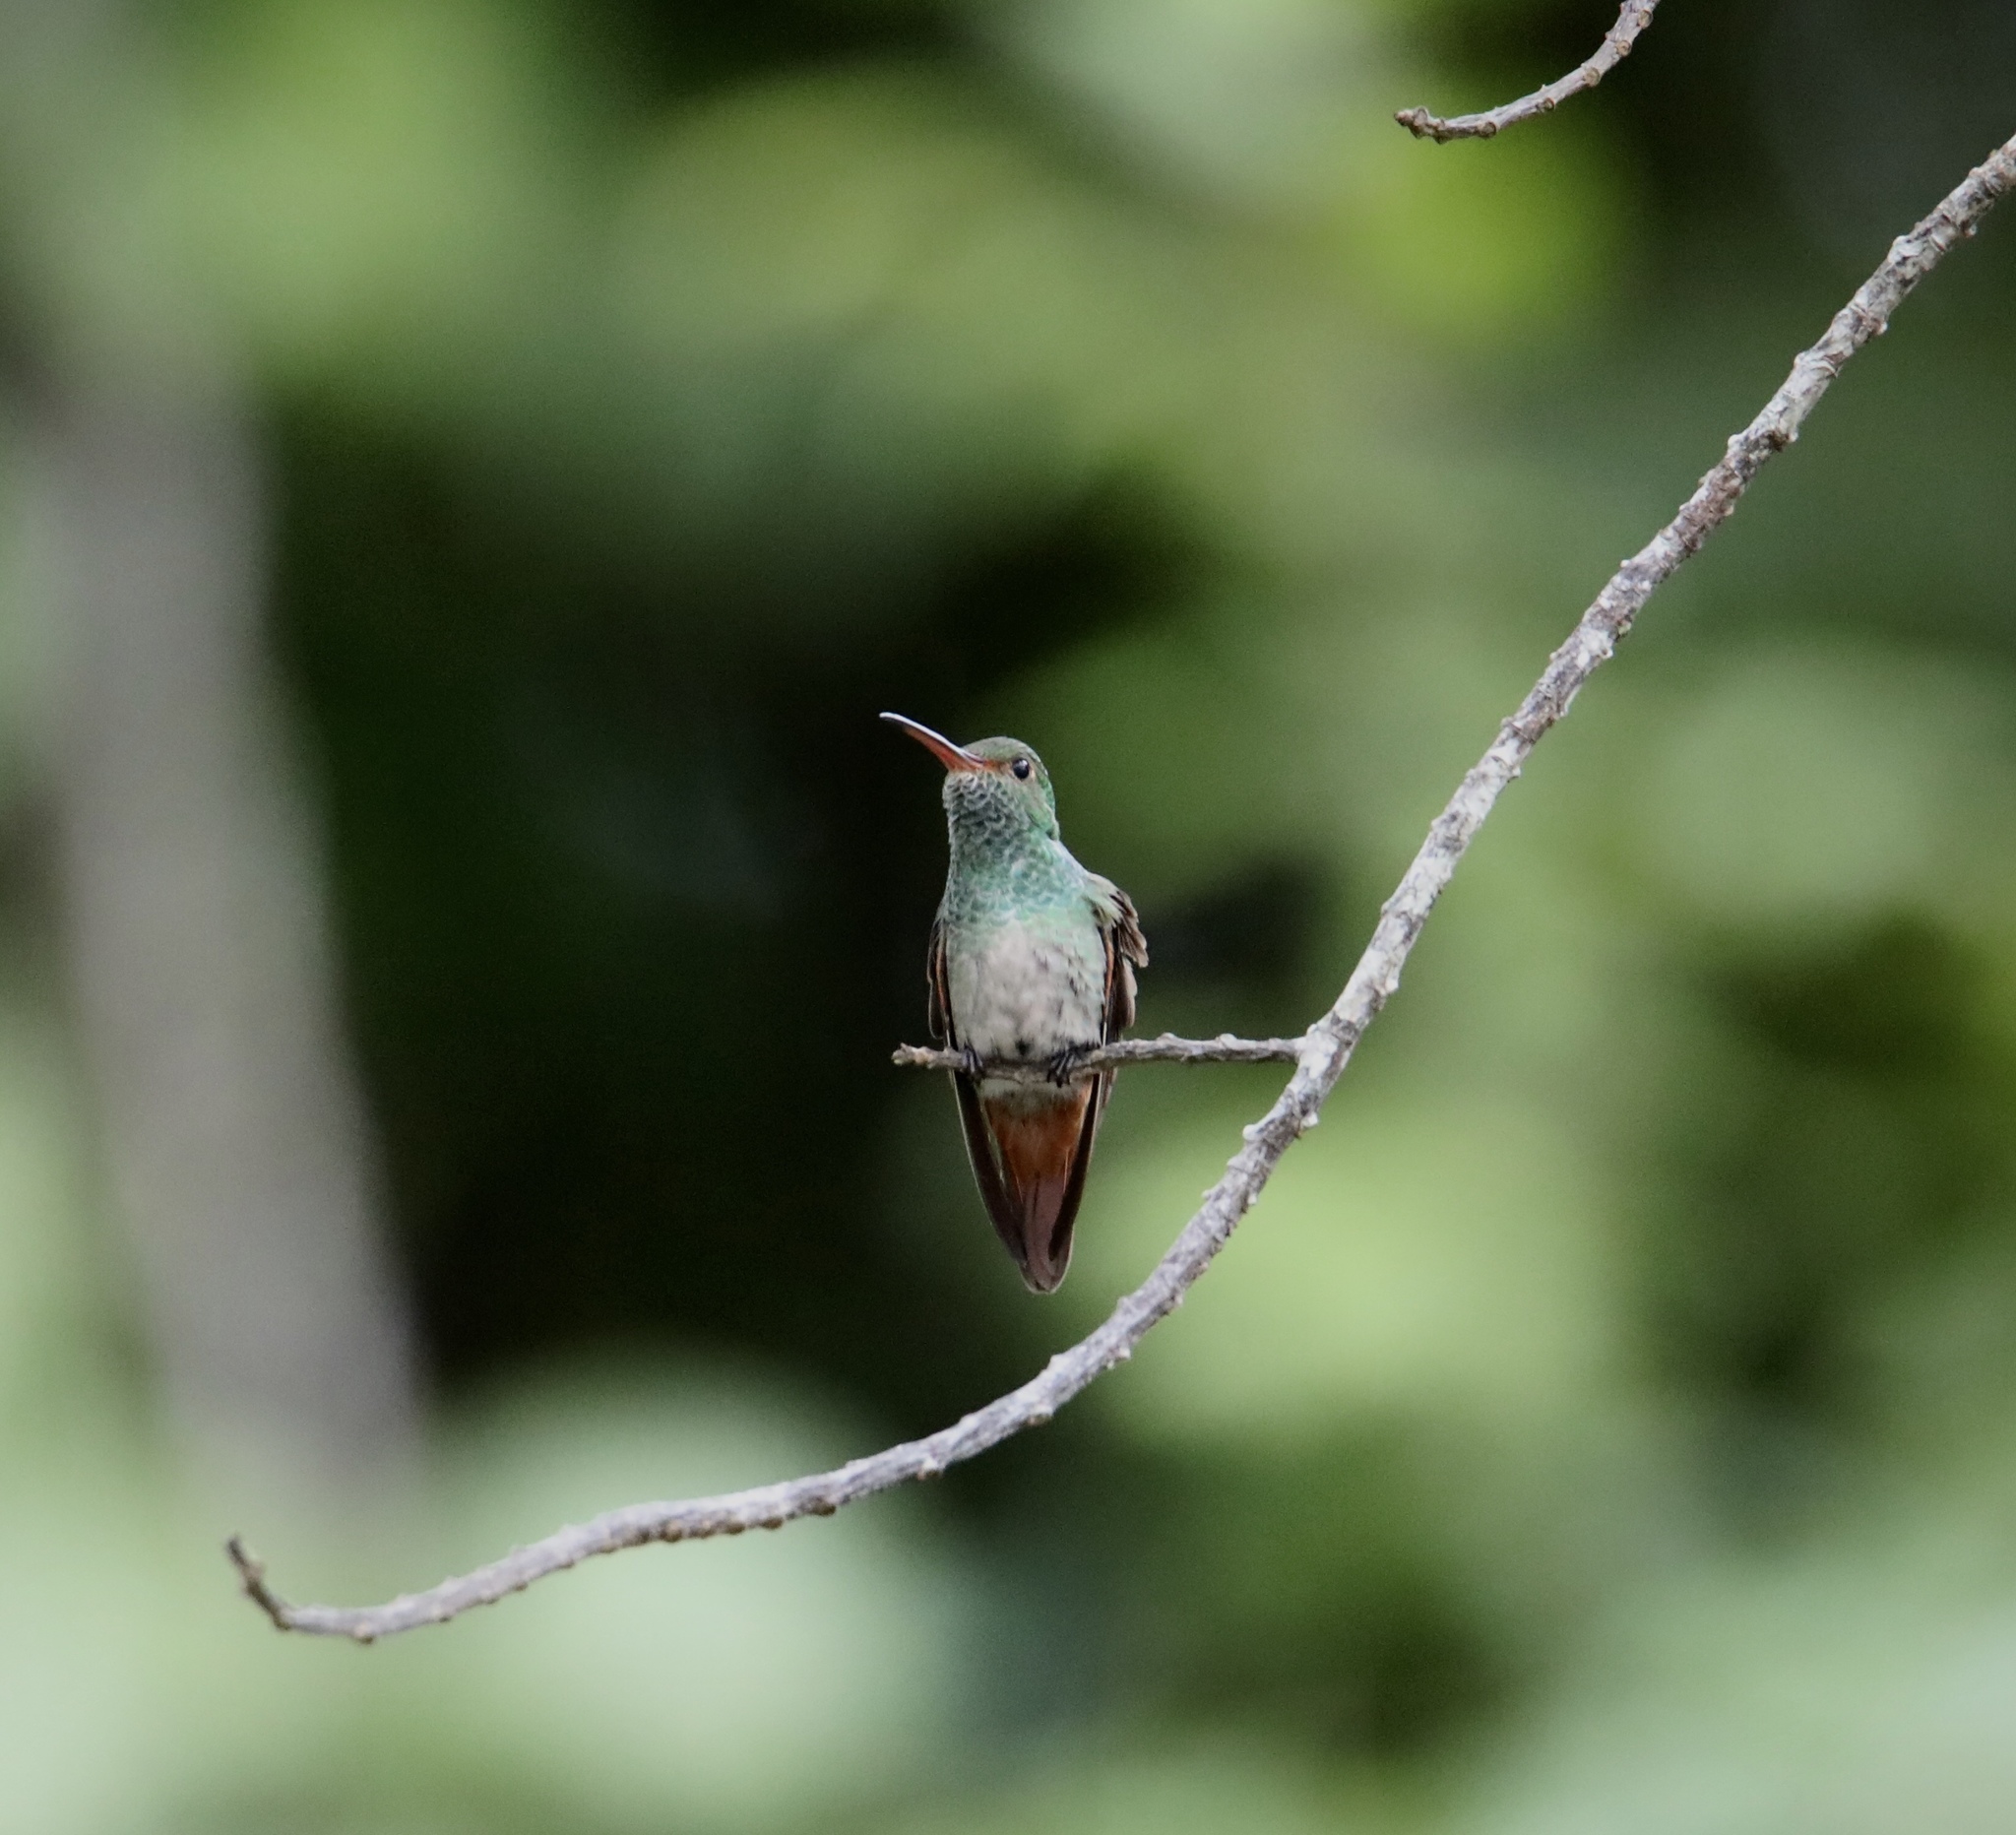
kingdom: Animalia
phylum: Chordata
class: Aves
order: Apodiformes
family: Trochilidae
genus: Amazilia
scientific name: Amazilia tzacatl
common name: Rufous-tailed hummingbird
